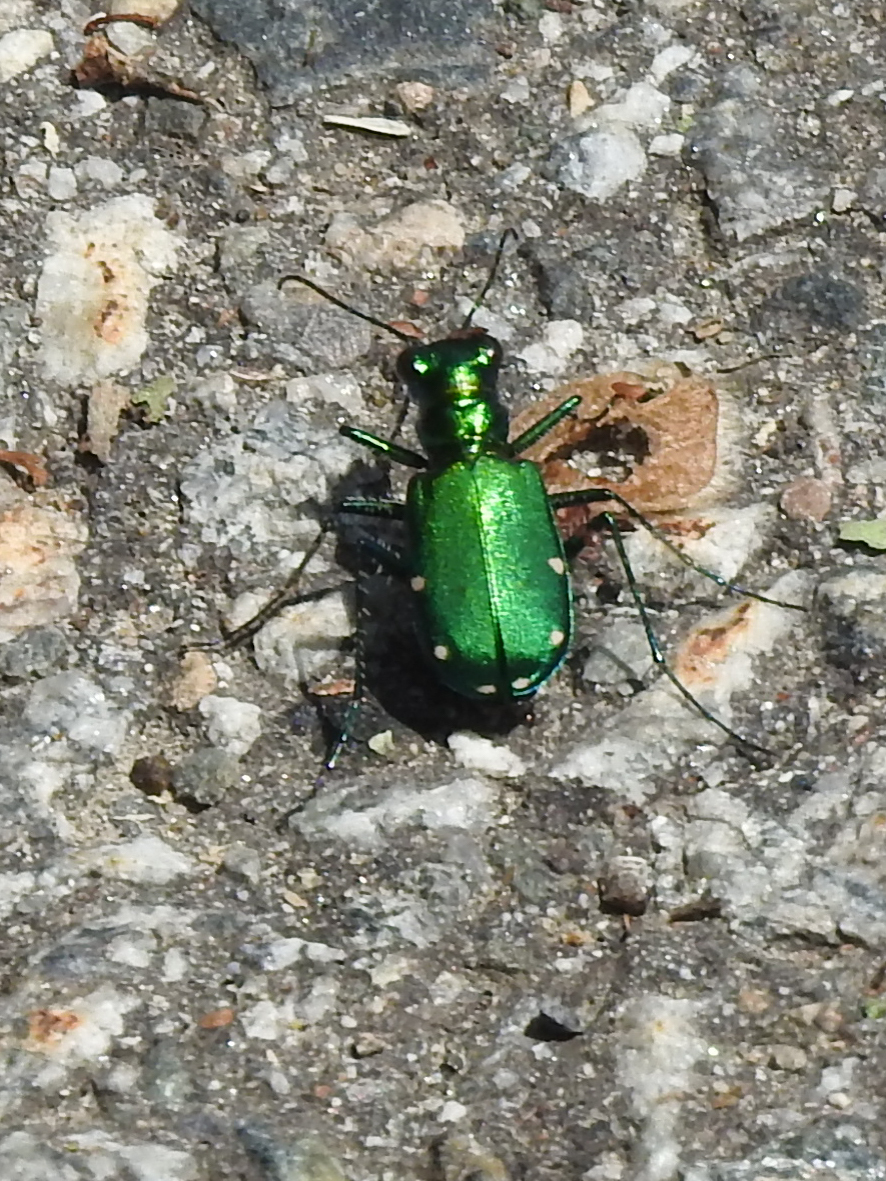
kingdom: Animalia
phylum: Arthropoda
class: Insecta
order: Coleoptera
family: Carabidae
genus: Cicindela
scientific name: Cicindela sexguttata
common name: Six-spotted tiger beetle
